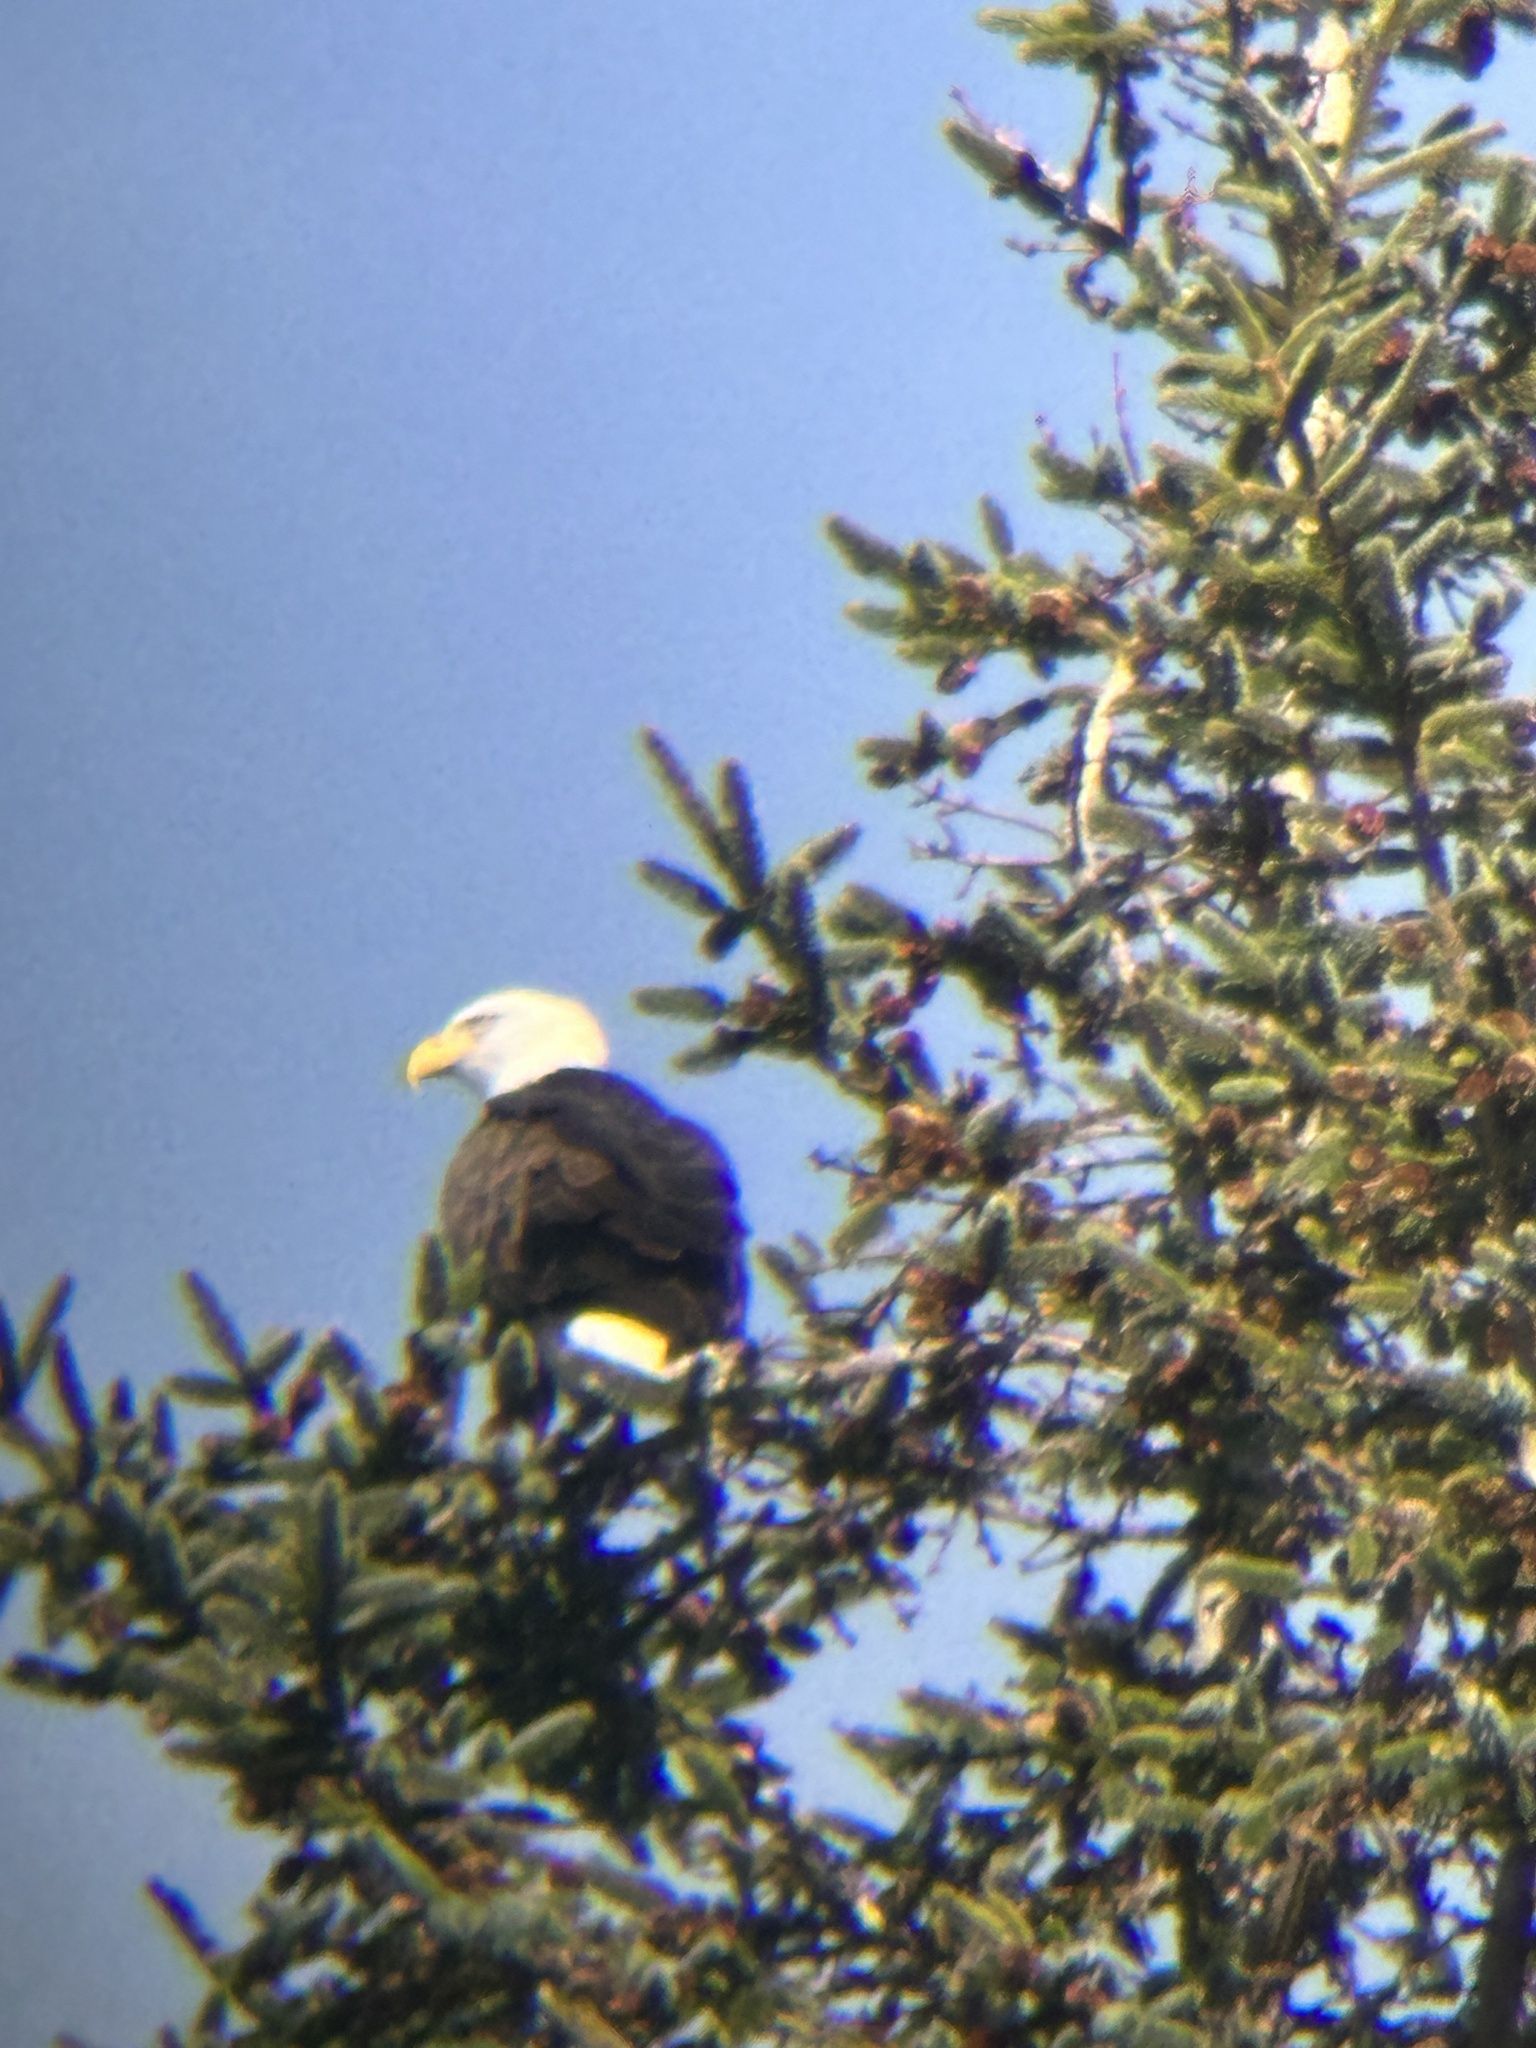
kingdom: Animalia
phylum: Chordata
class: Aves
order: Accipitriformes
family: Accipitridae
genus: Haliaeetus
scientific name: Haliaeetus leucocephalus
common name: Bald eagle
